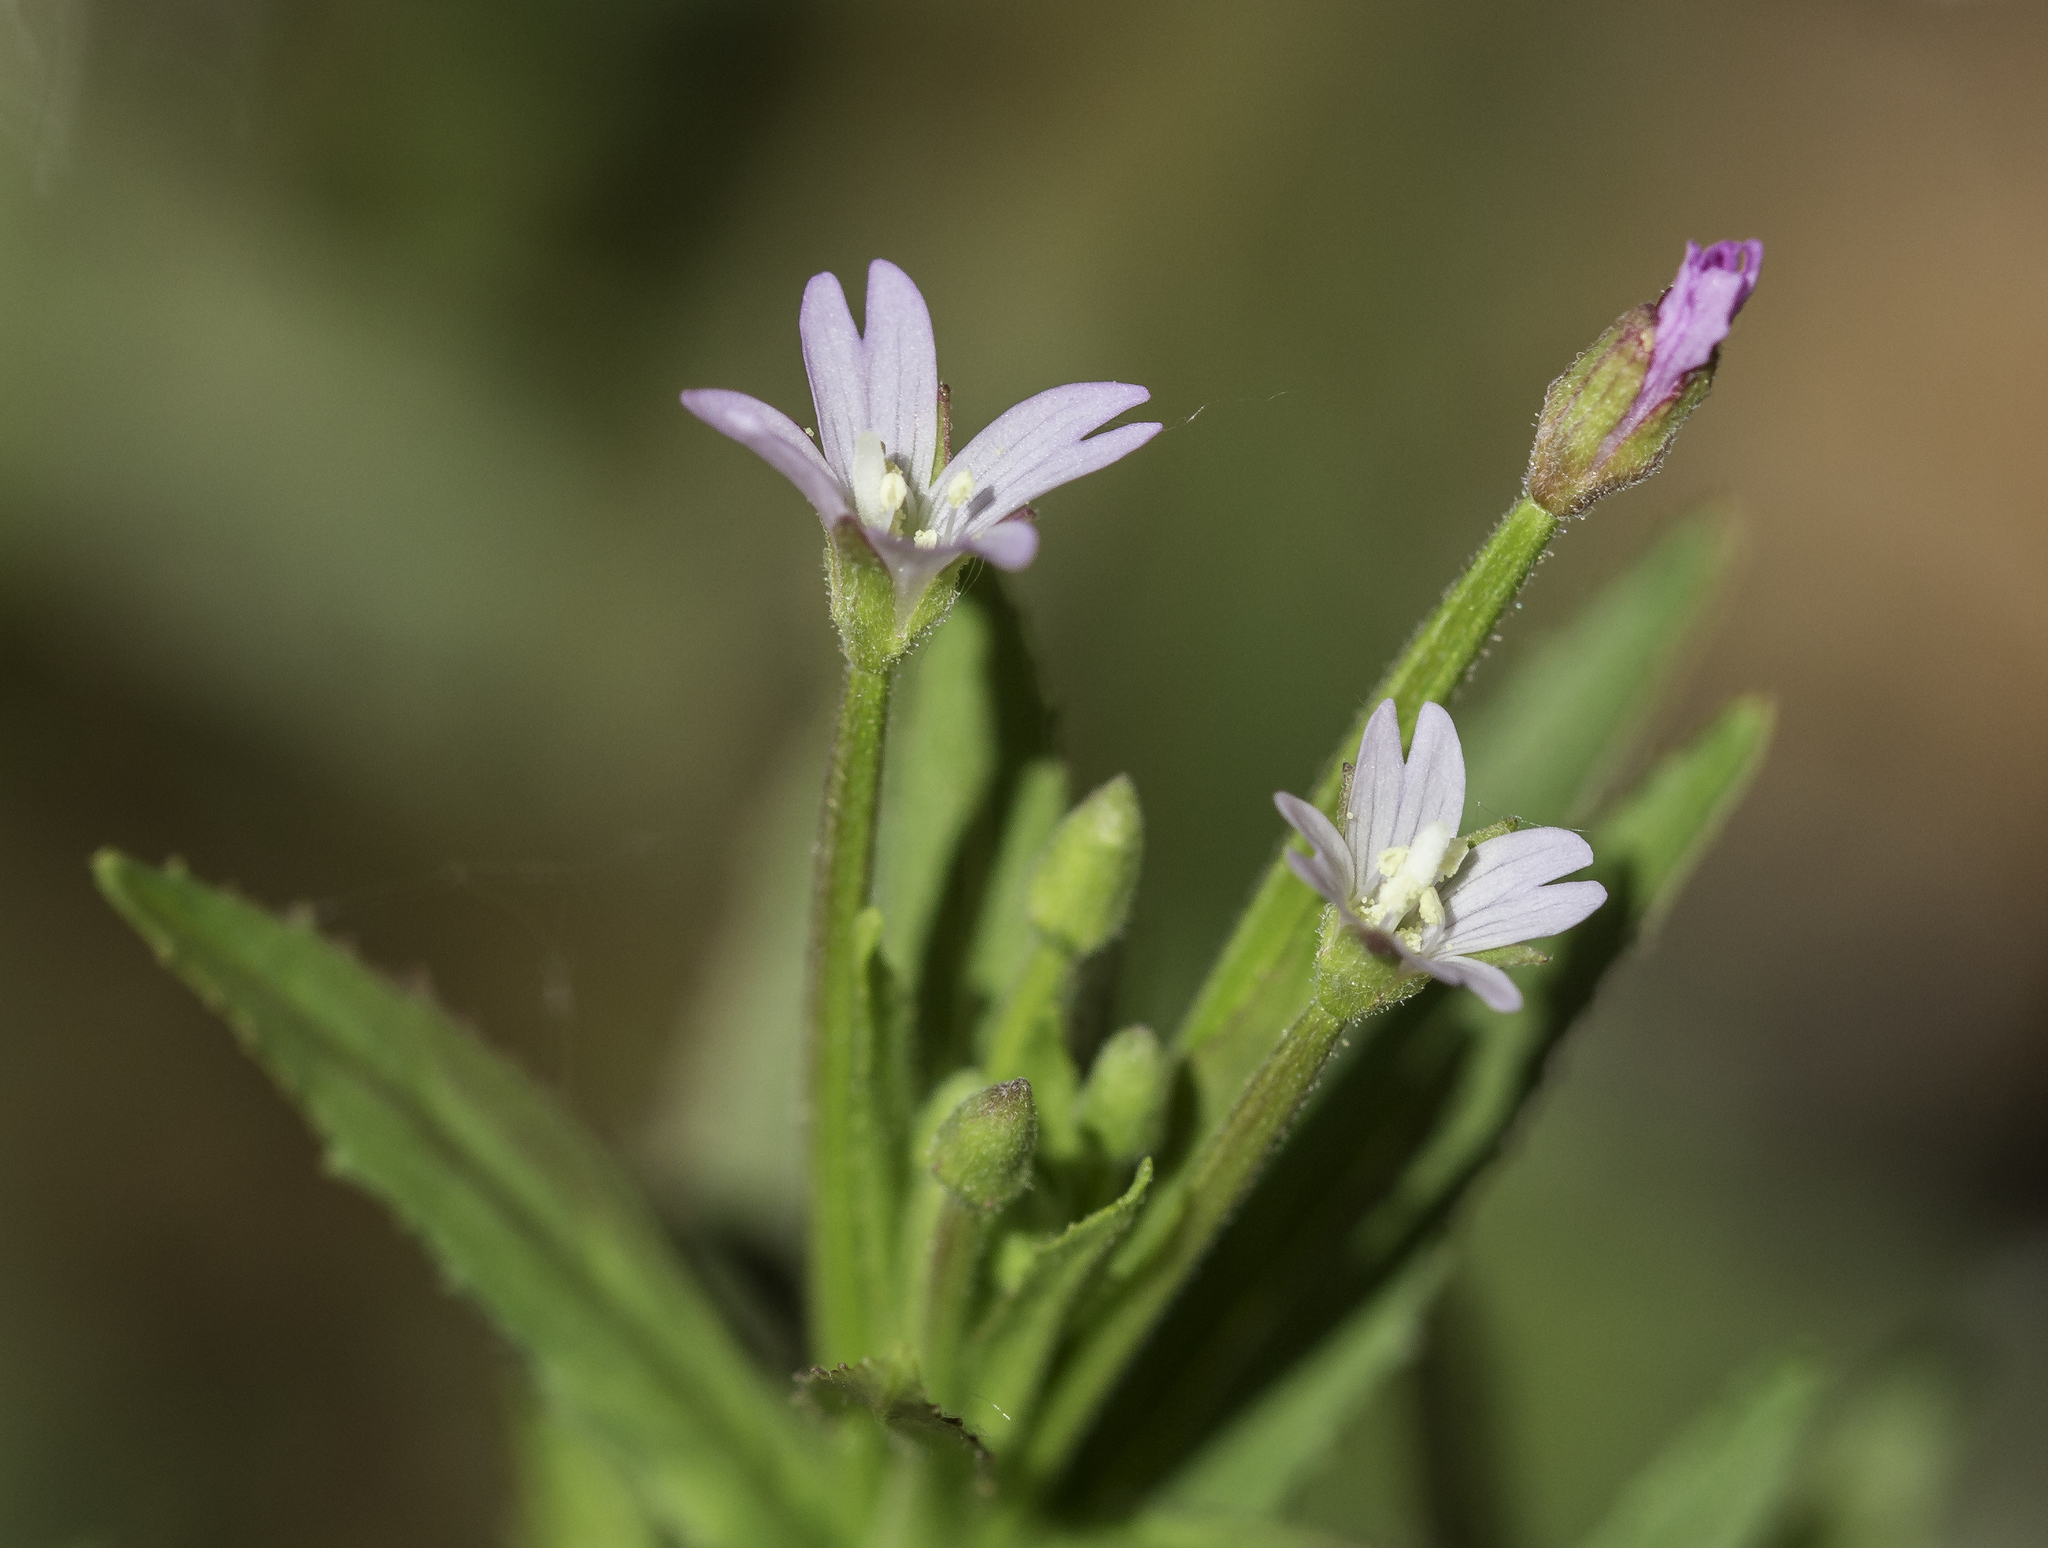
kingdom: Plantae
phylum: Tracheophyta
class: Magnoliopsida
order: Myrtales
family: Onagraceae
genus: Epilobium
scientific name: Epilobium ciliatum
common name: American willowherb
